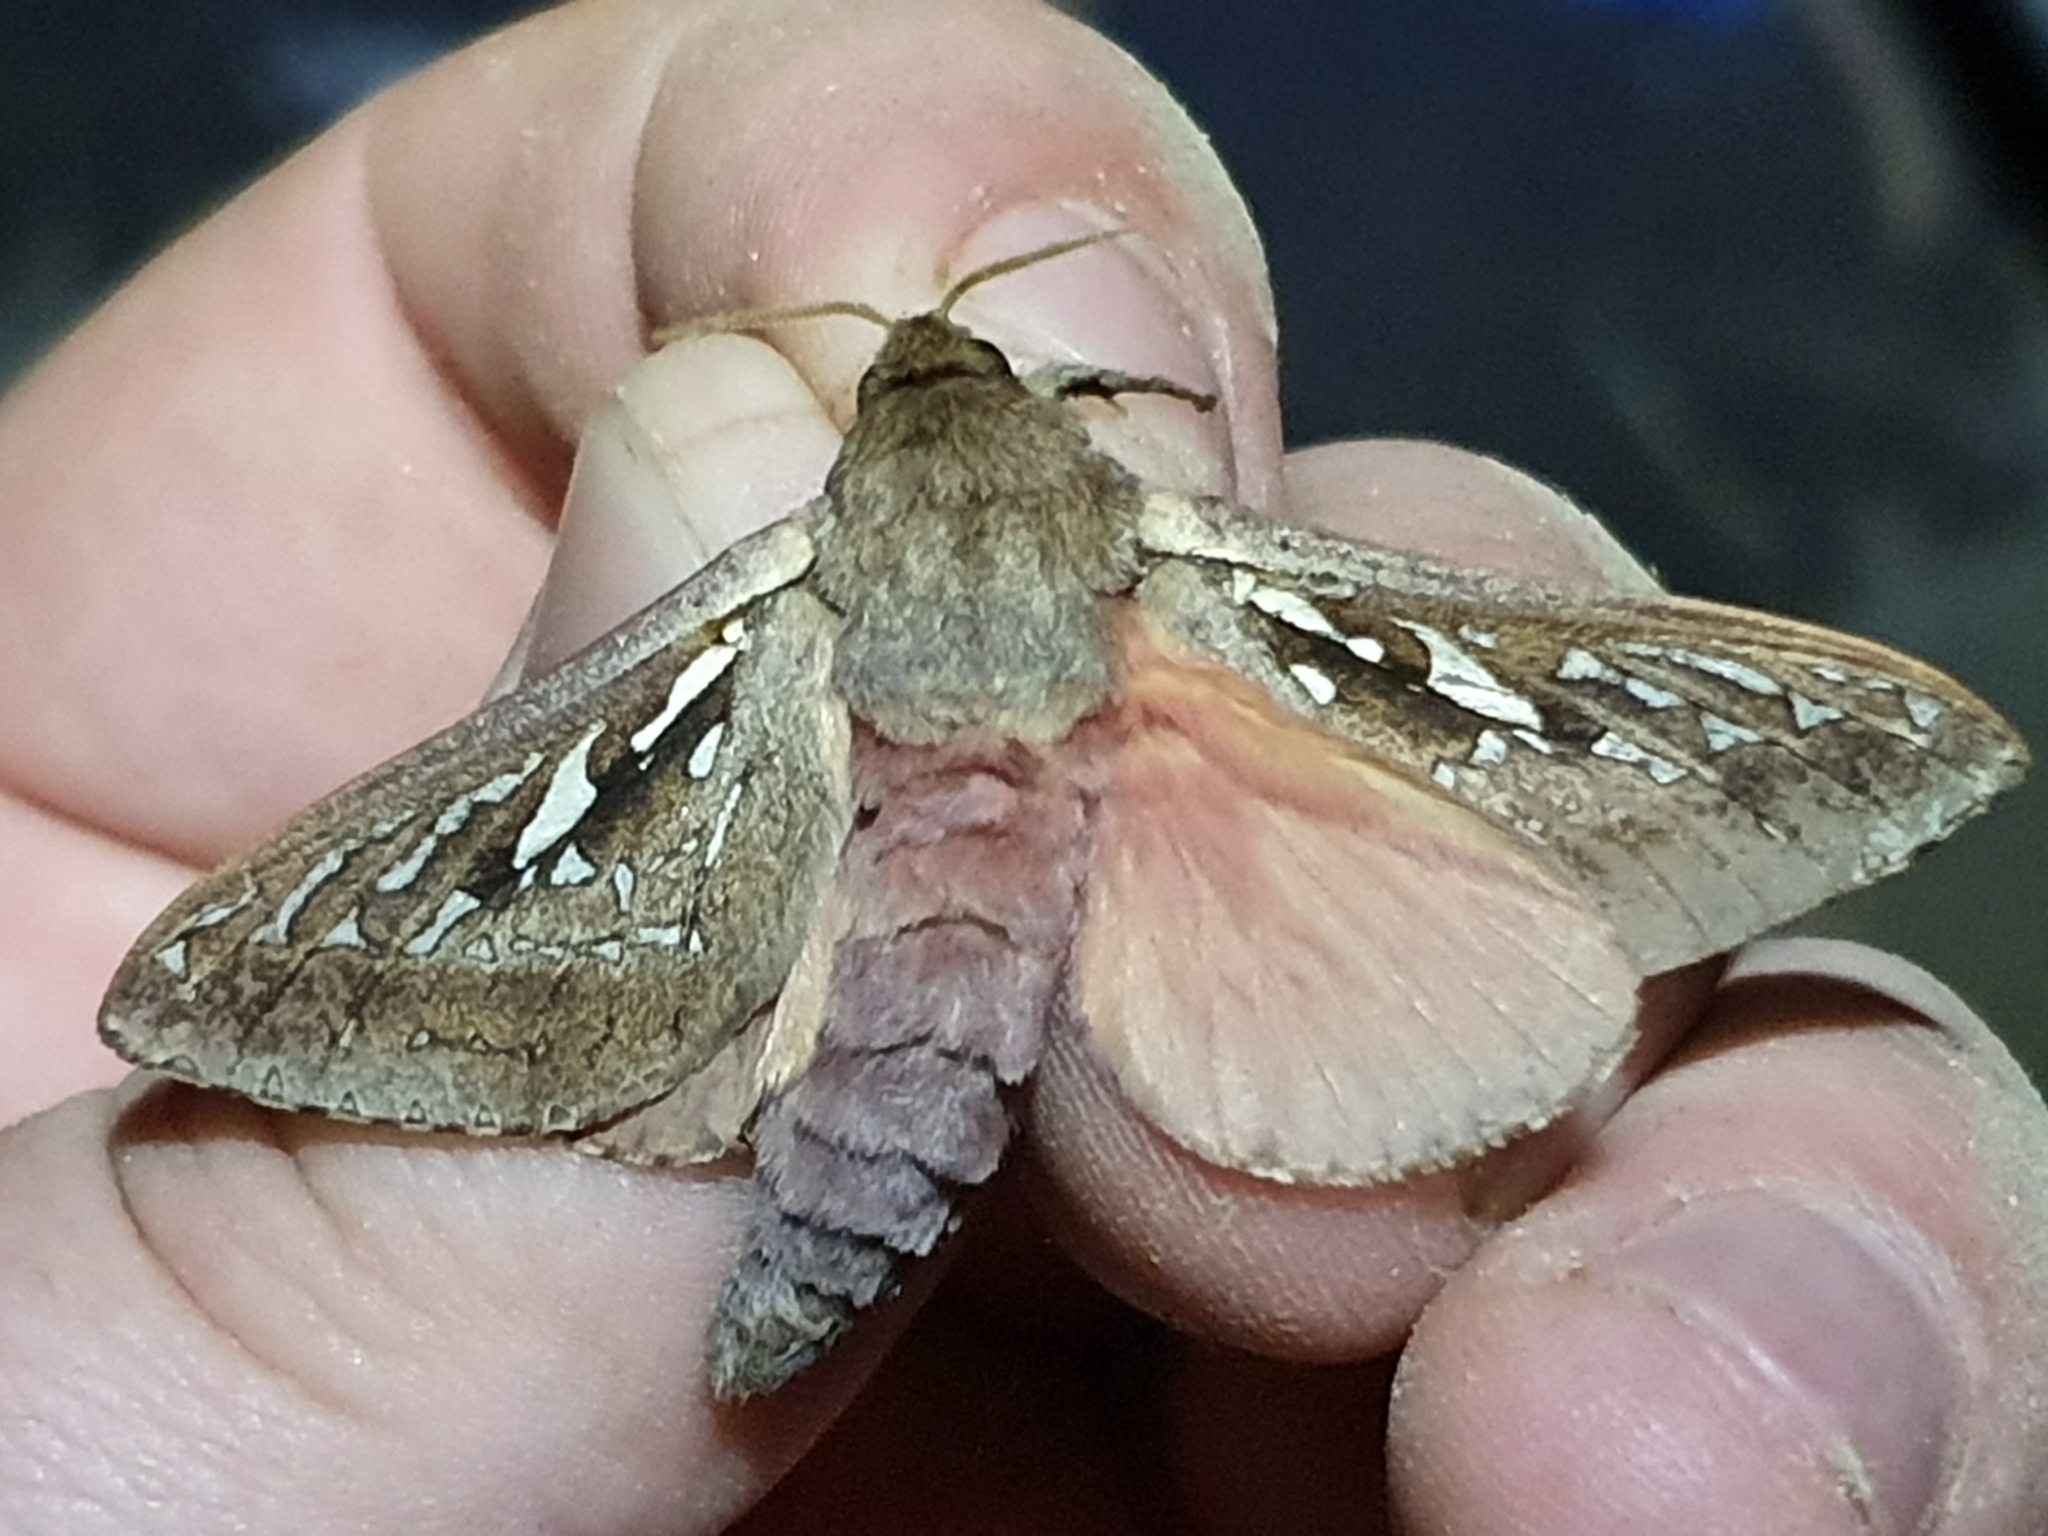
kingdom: Animalia
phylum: Arthropoda
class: Insecta
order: Lepidoptera
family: Hepialidae
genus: Wiseana
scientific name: Wiseana signata
